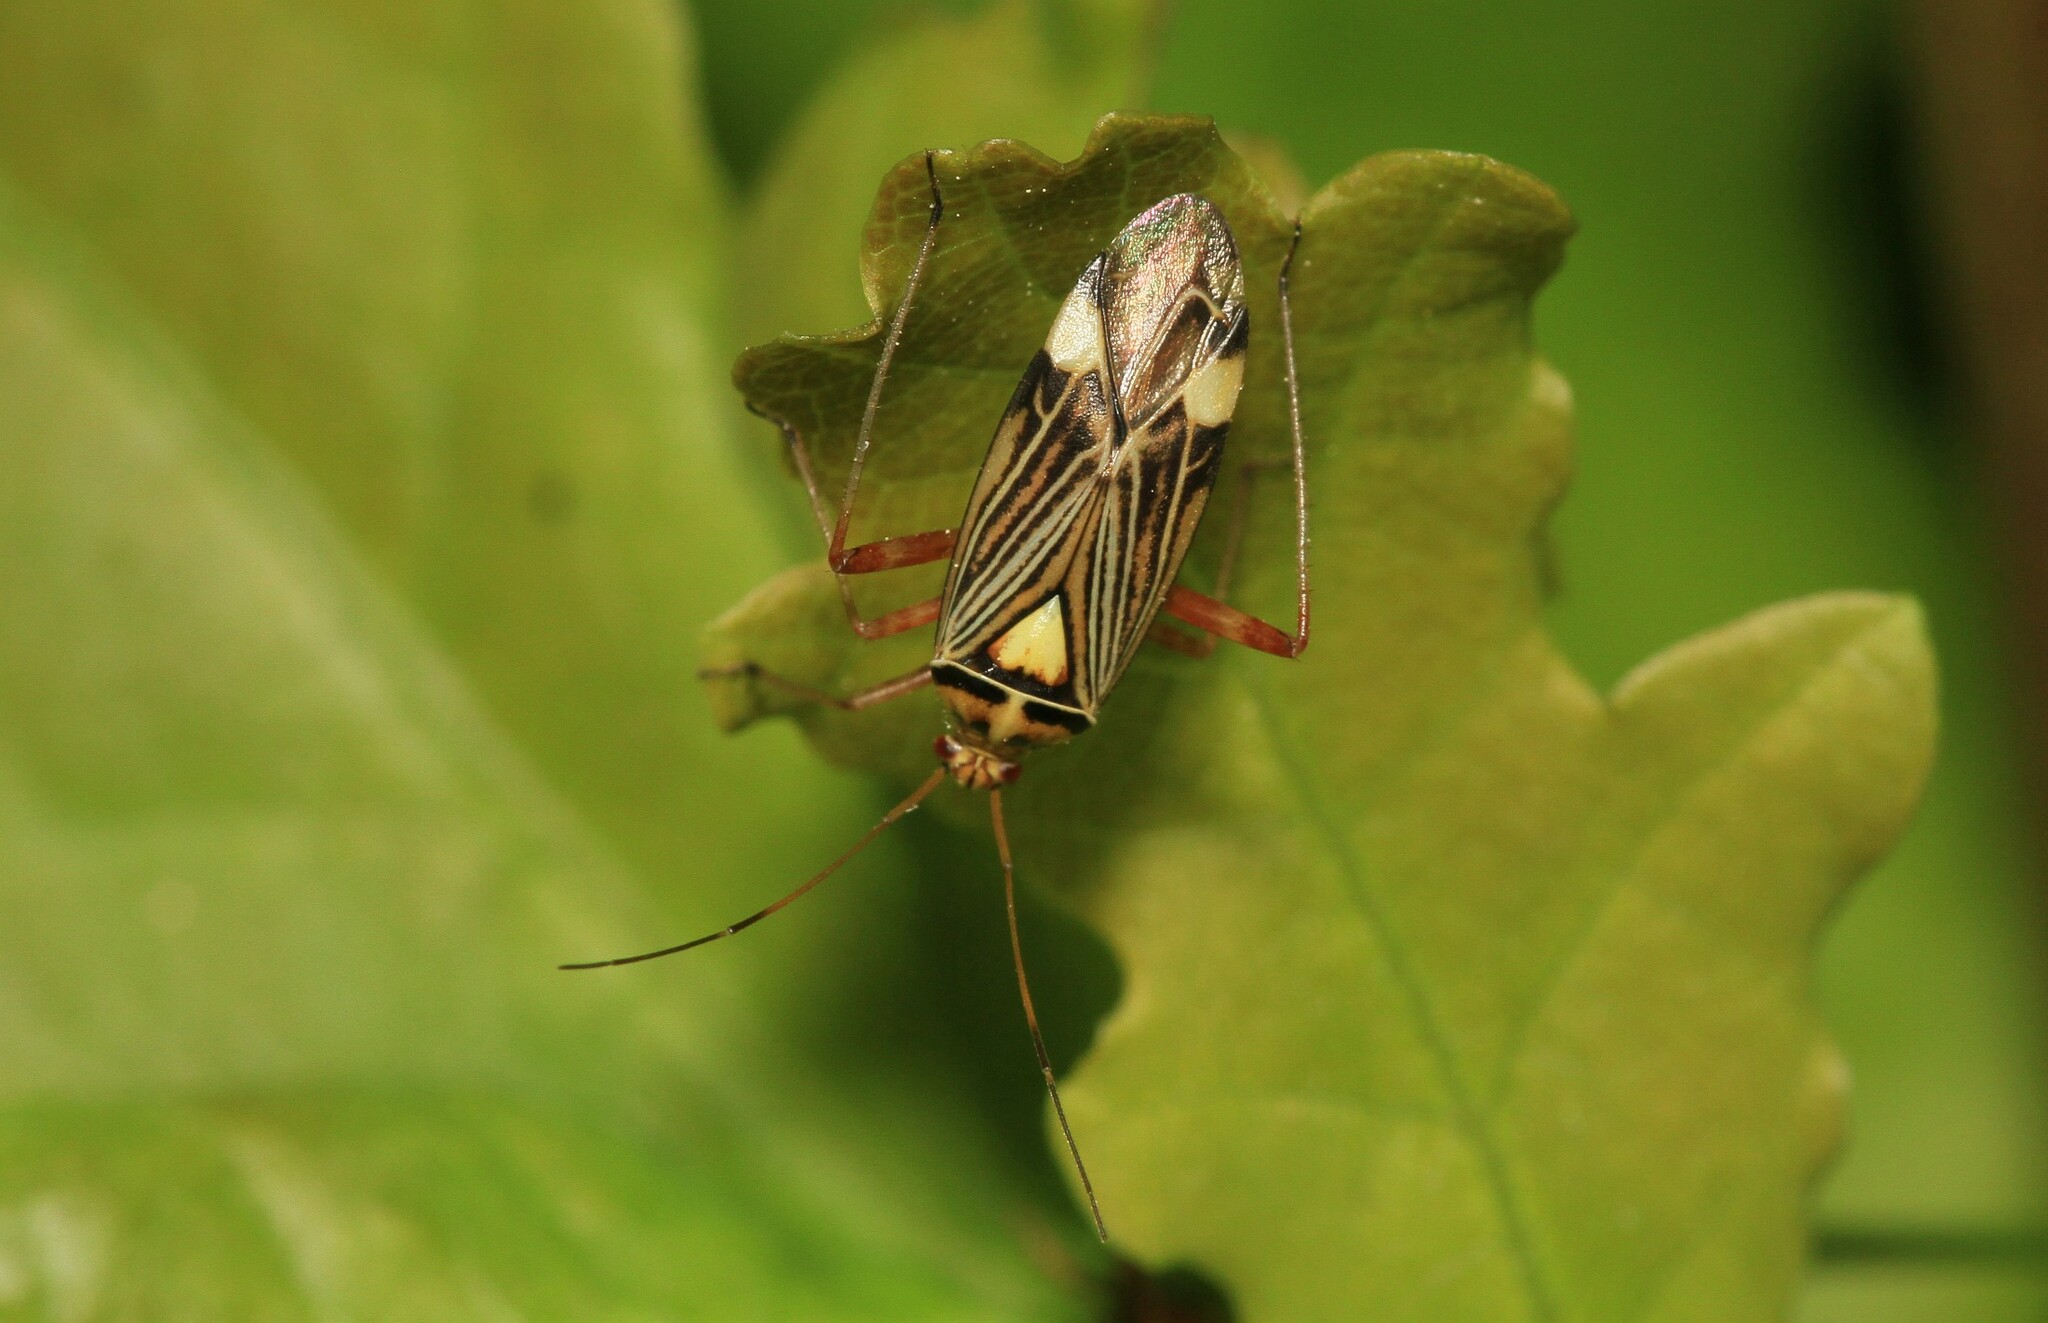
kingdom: Animalia
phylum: Arthropoda
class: Insecta
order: Hemiptera
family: Miridae
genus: Rhabdomiris
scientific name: Rhabdomiris striatellus
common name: Plant bug
